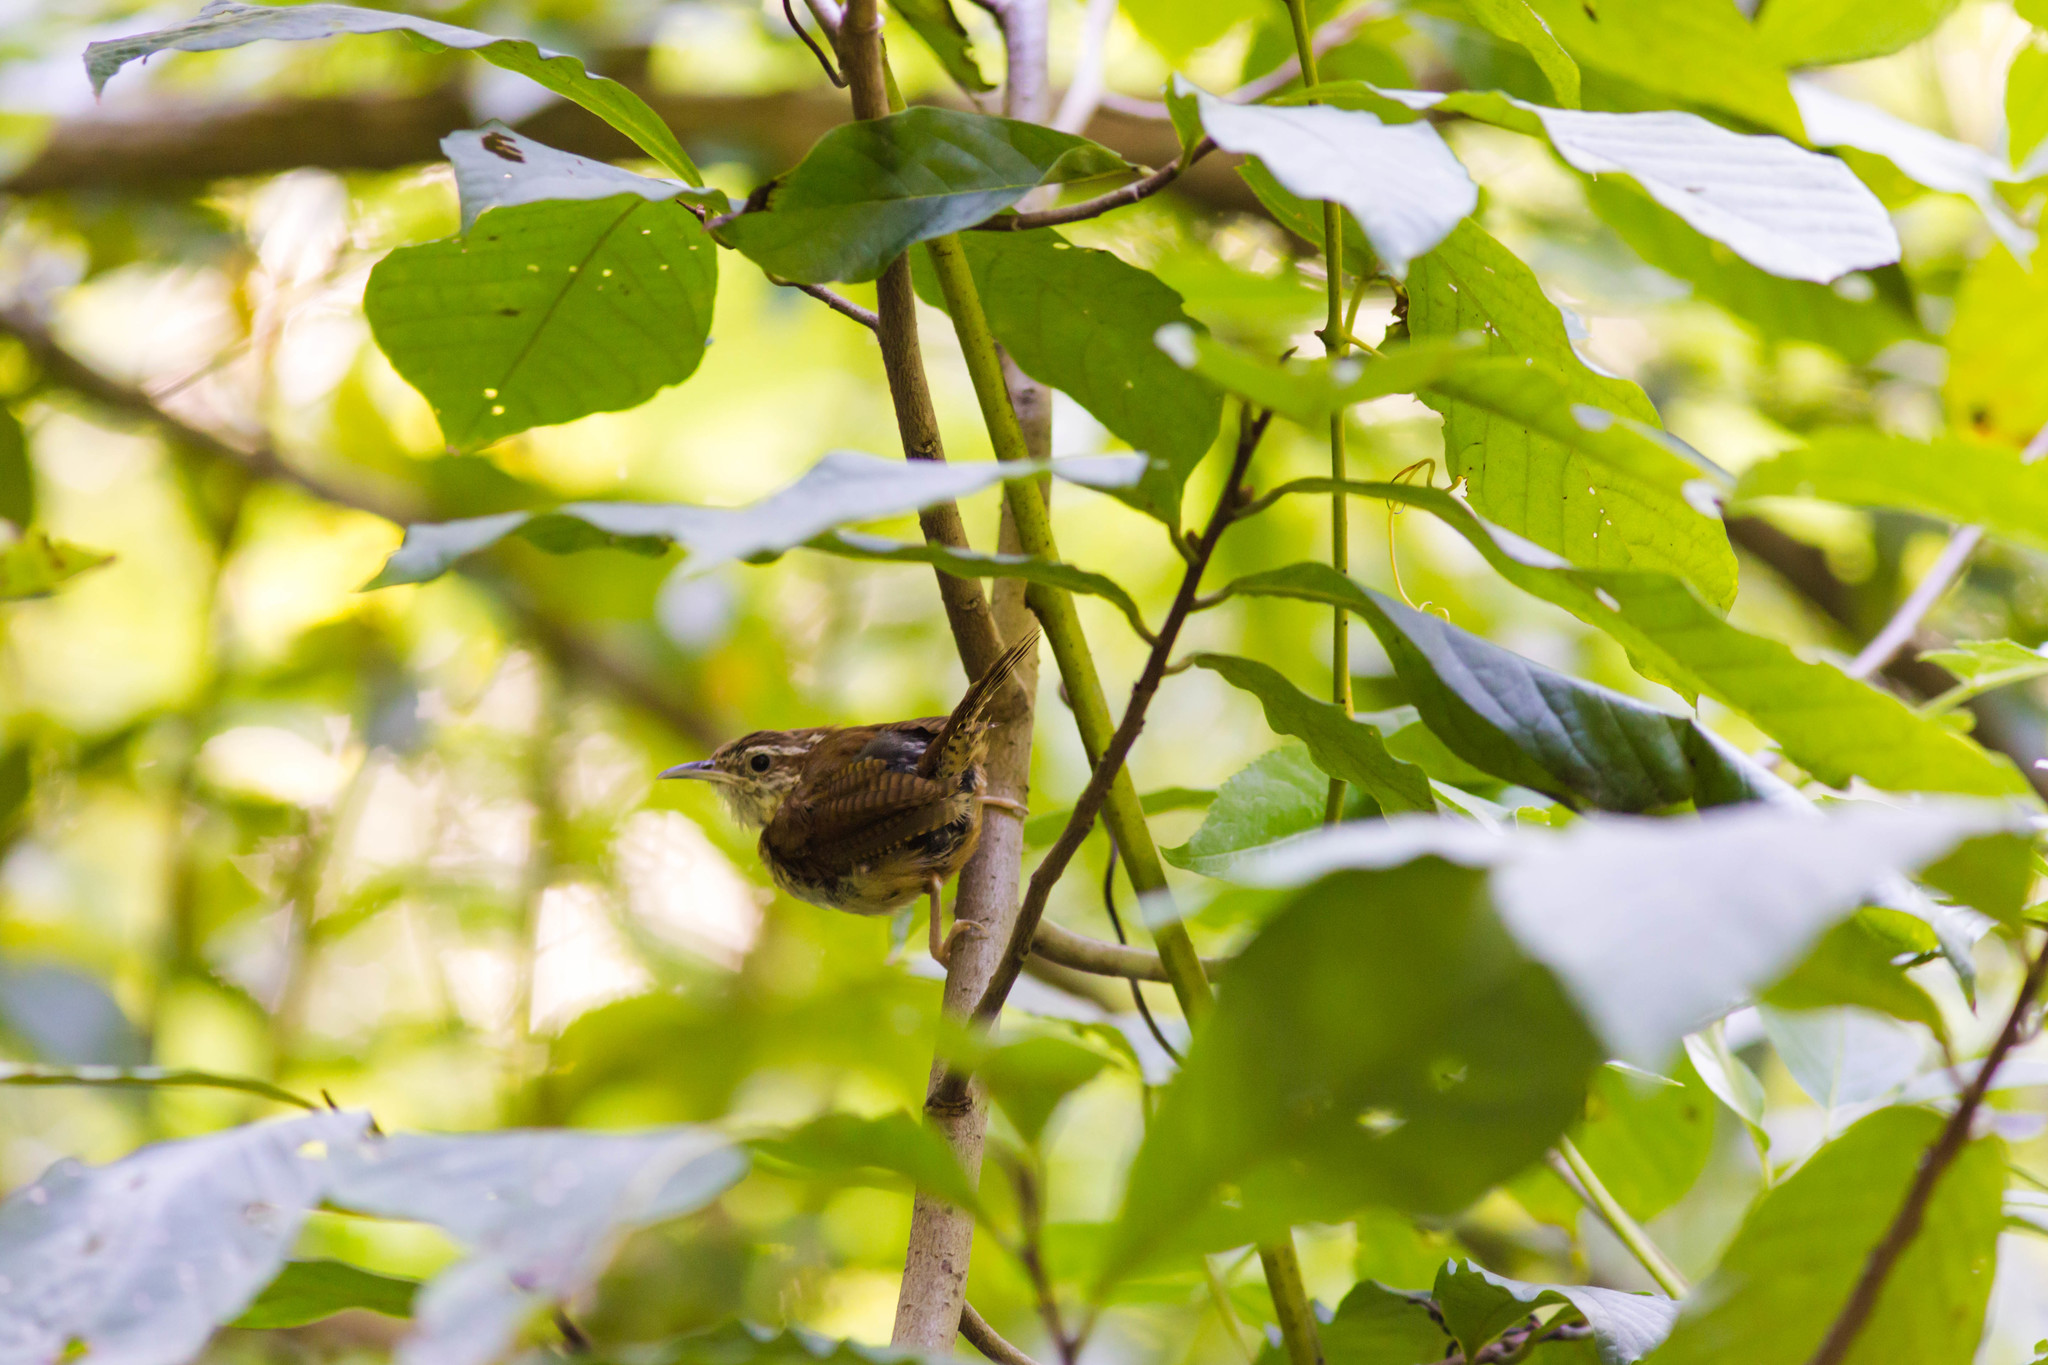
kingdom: Animalia
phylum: Chordata
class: Aves
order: Passeriformes
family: Troglodytidae
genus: Thryothorus
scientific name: Thryothorus ludovicianus
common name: Carolina wren
